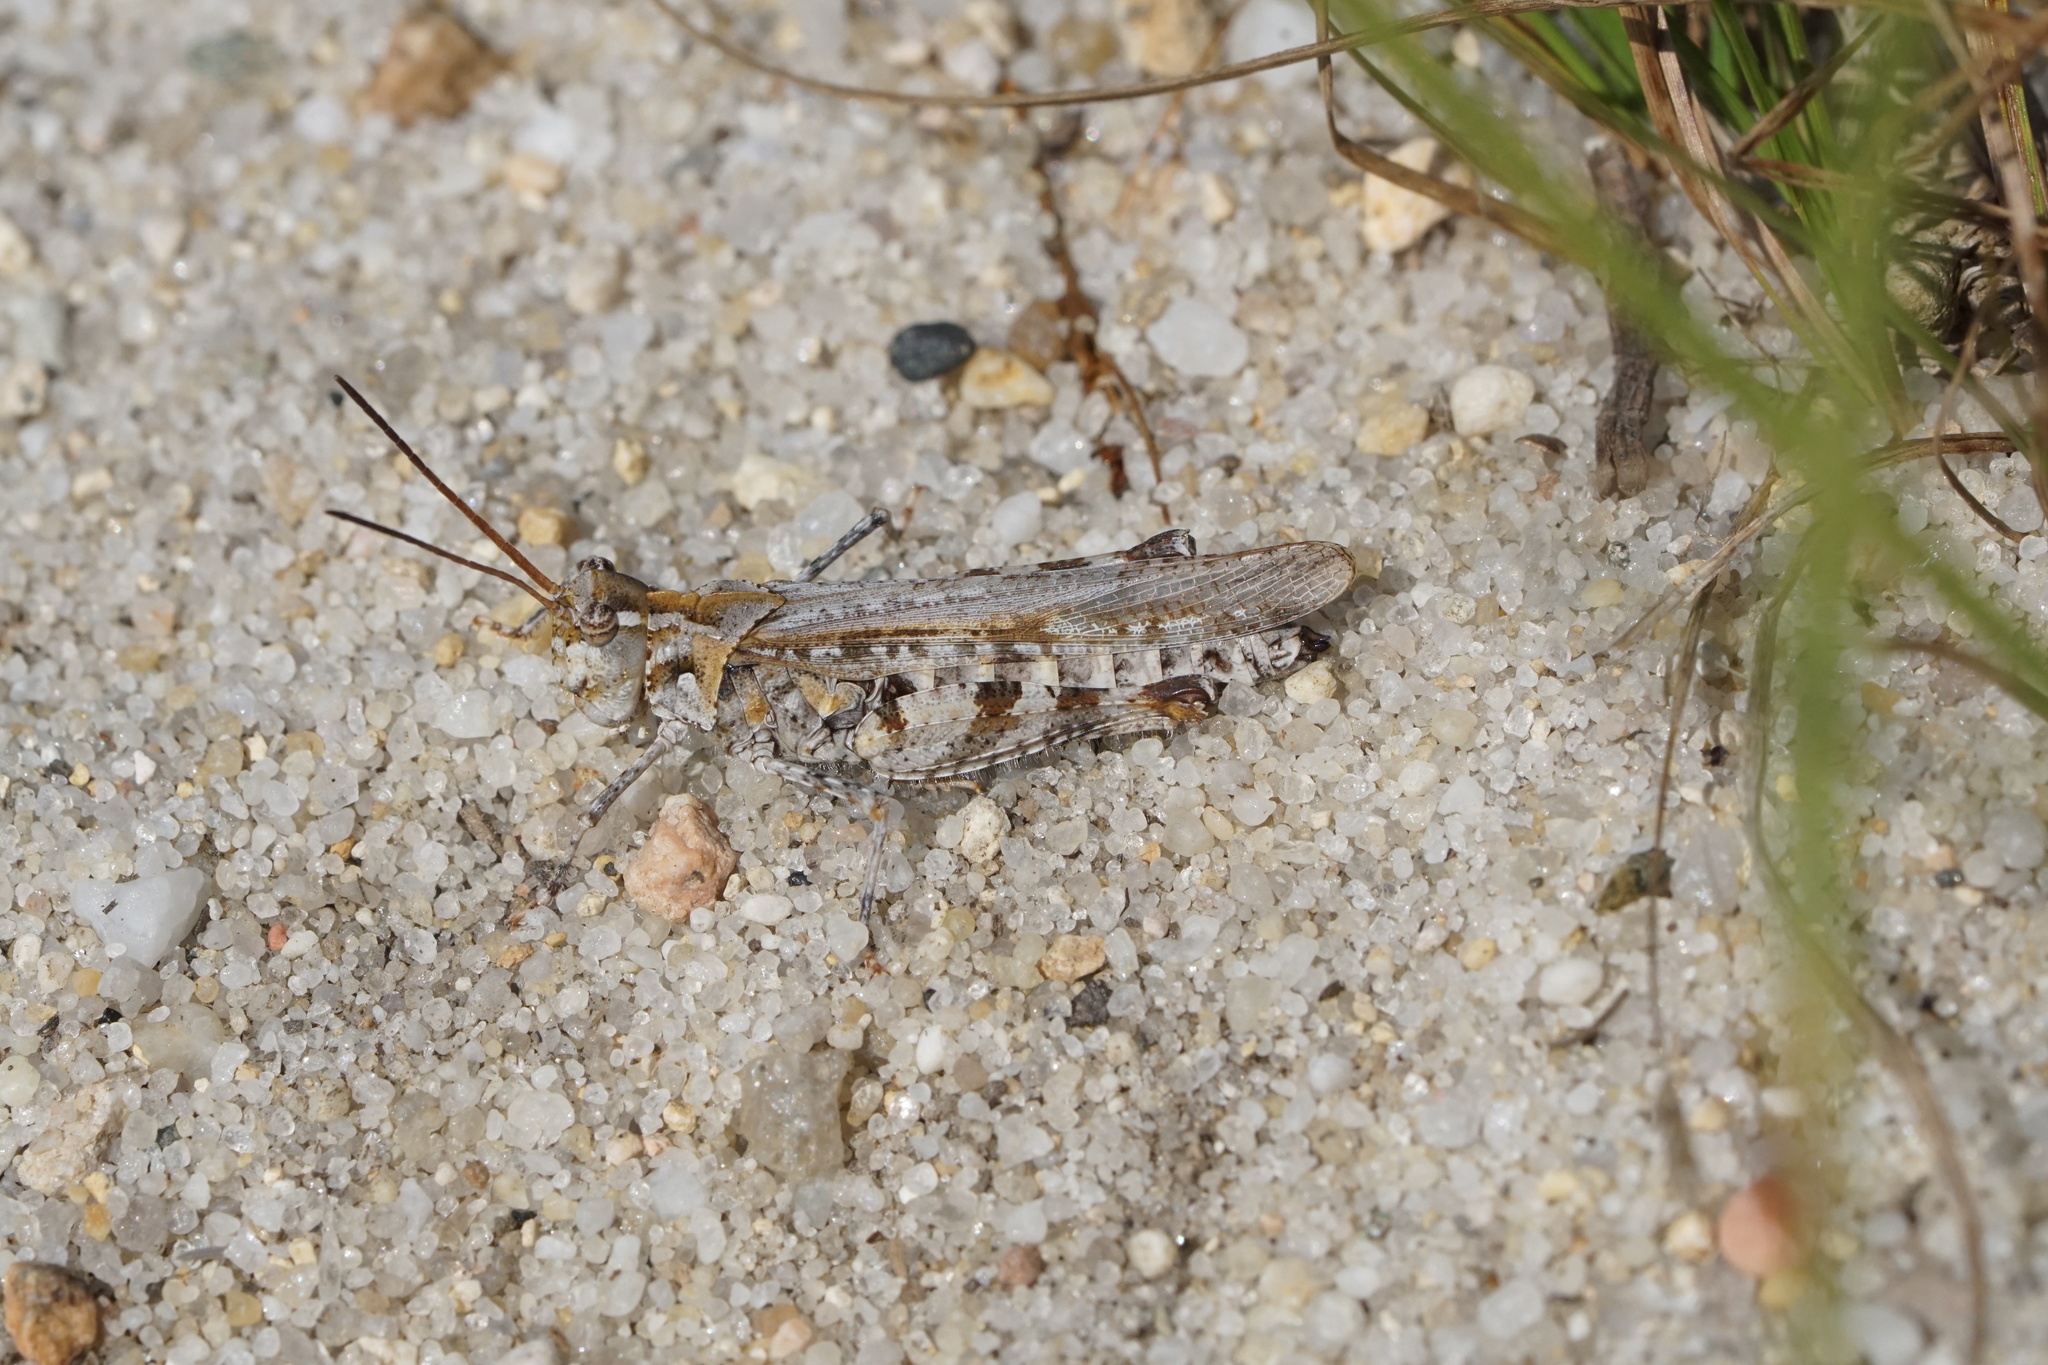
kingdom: Animalia
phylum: Arthropoda
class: Insecta
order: Orthoptera
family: Acrididae
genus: Psinidia
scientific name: Psinidia fenestralis
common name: Long-horned locust
